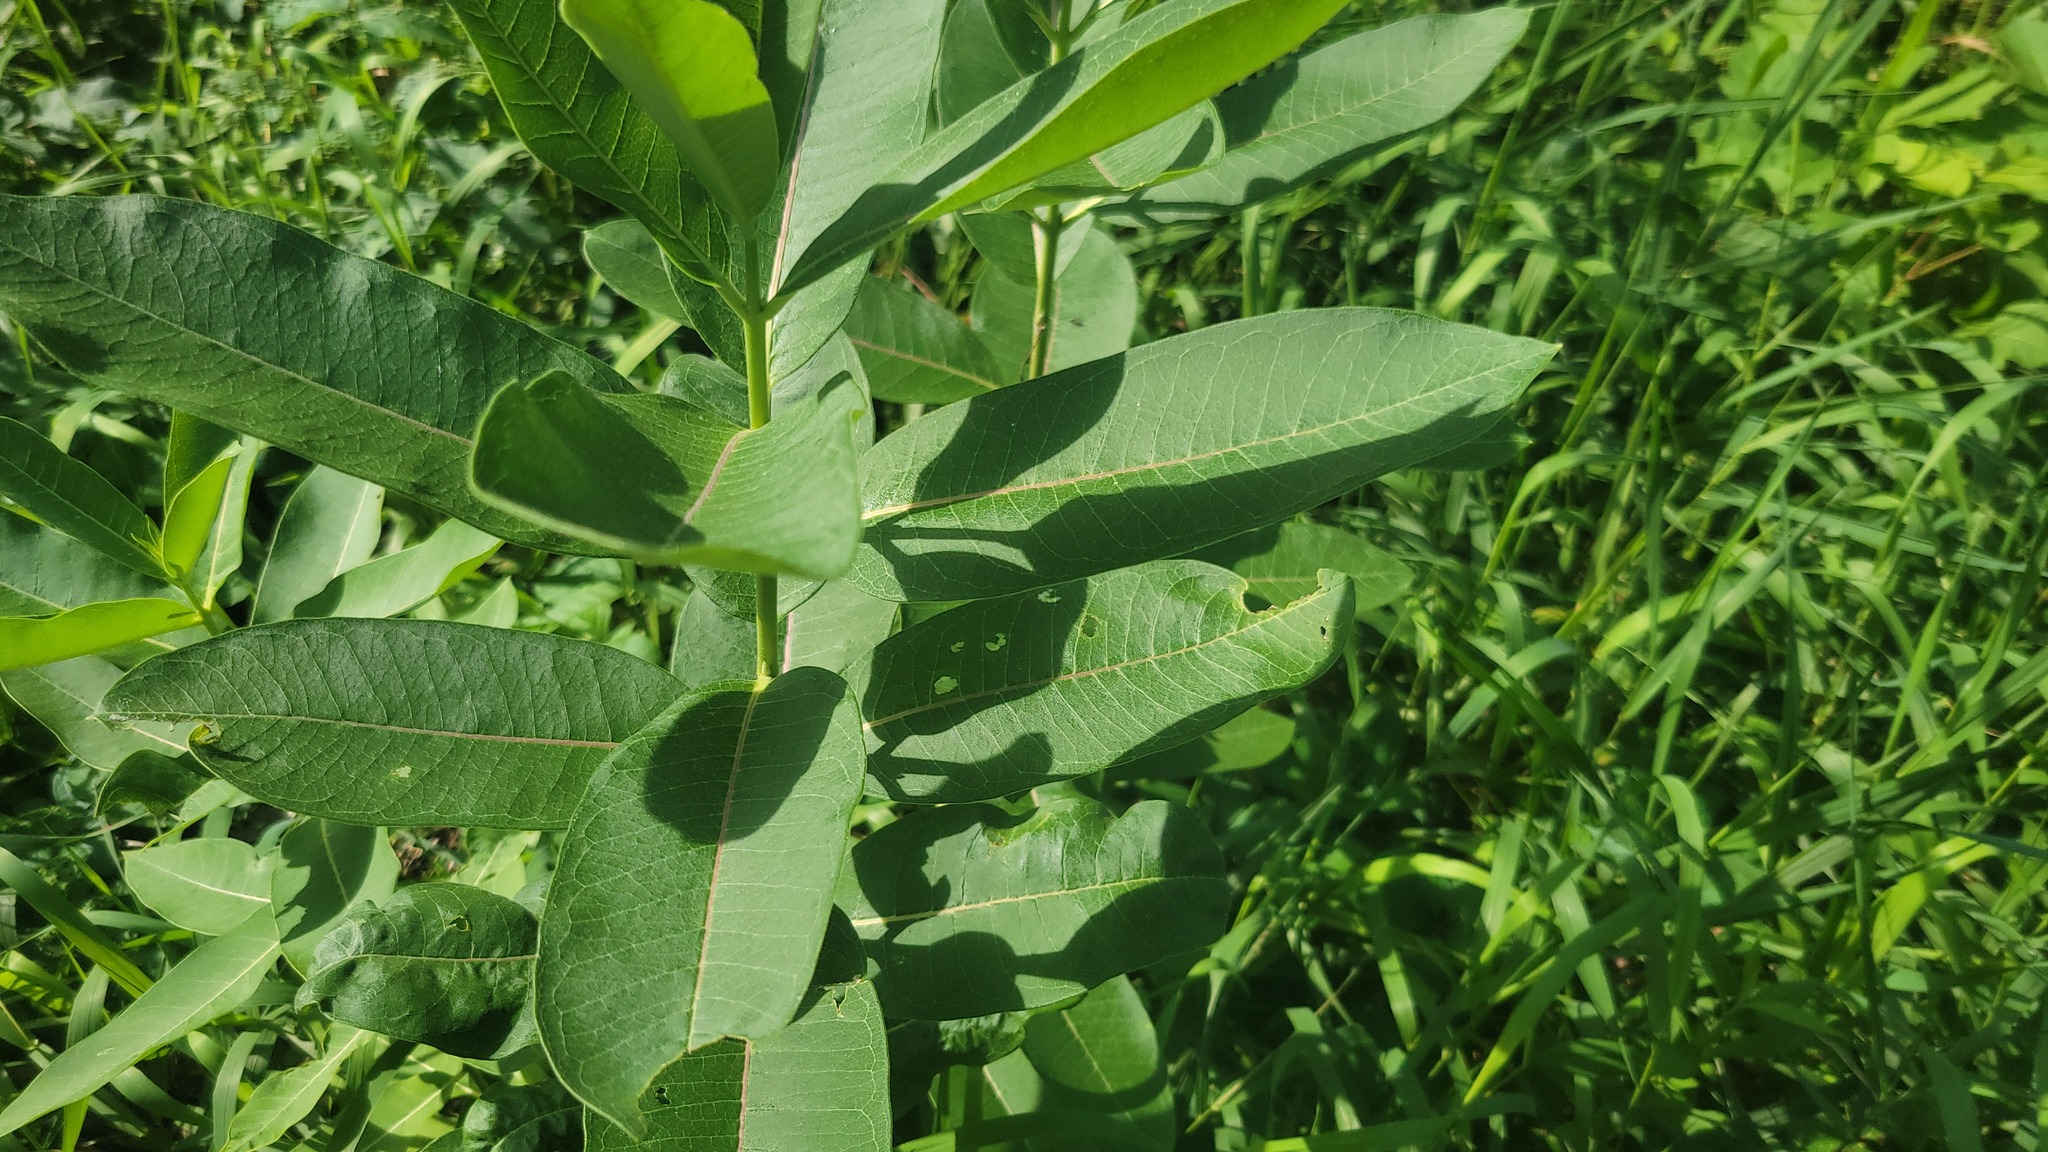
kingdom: Plantae
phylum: Tracheophyta
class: Magnoliopsida
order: Gentianales
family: Apocynaceae
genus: Asclepias
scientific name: Asclepias syriaca
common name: Common milkweed
